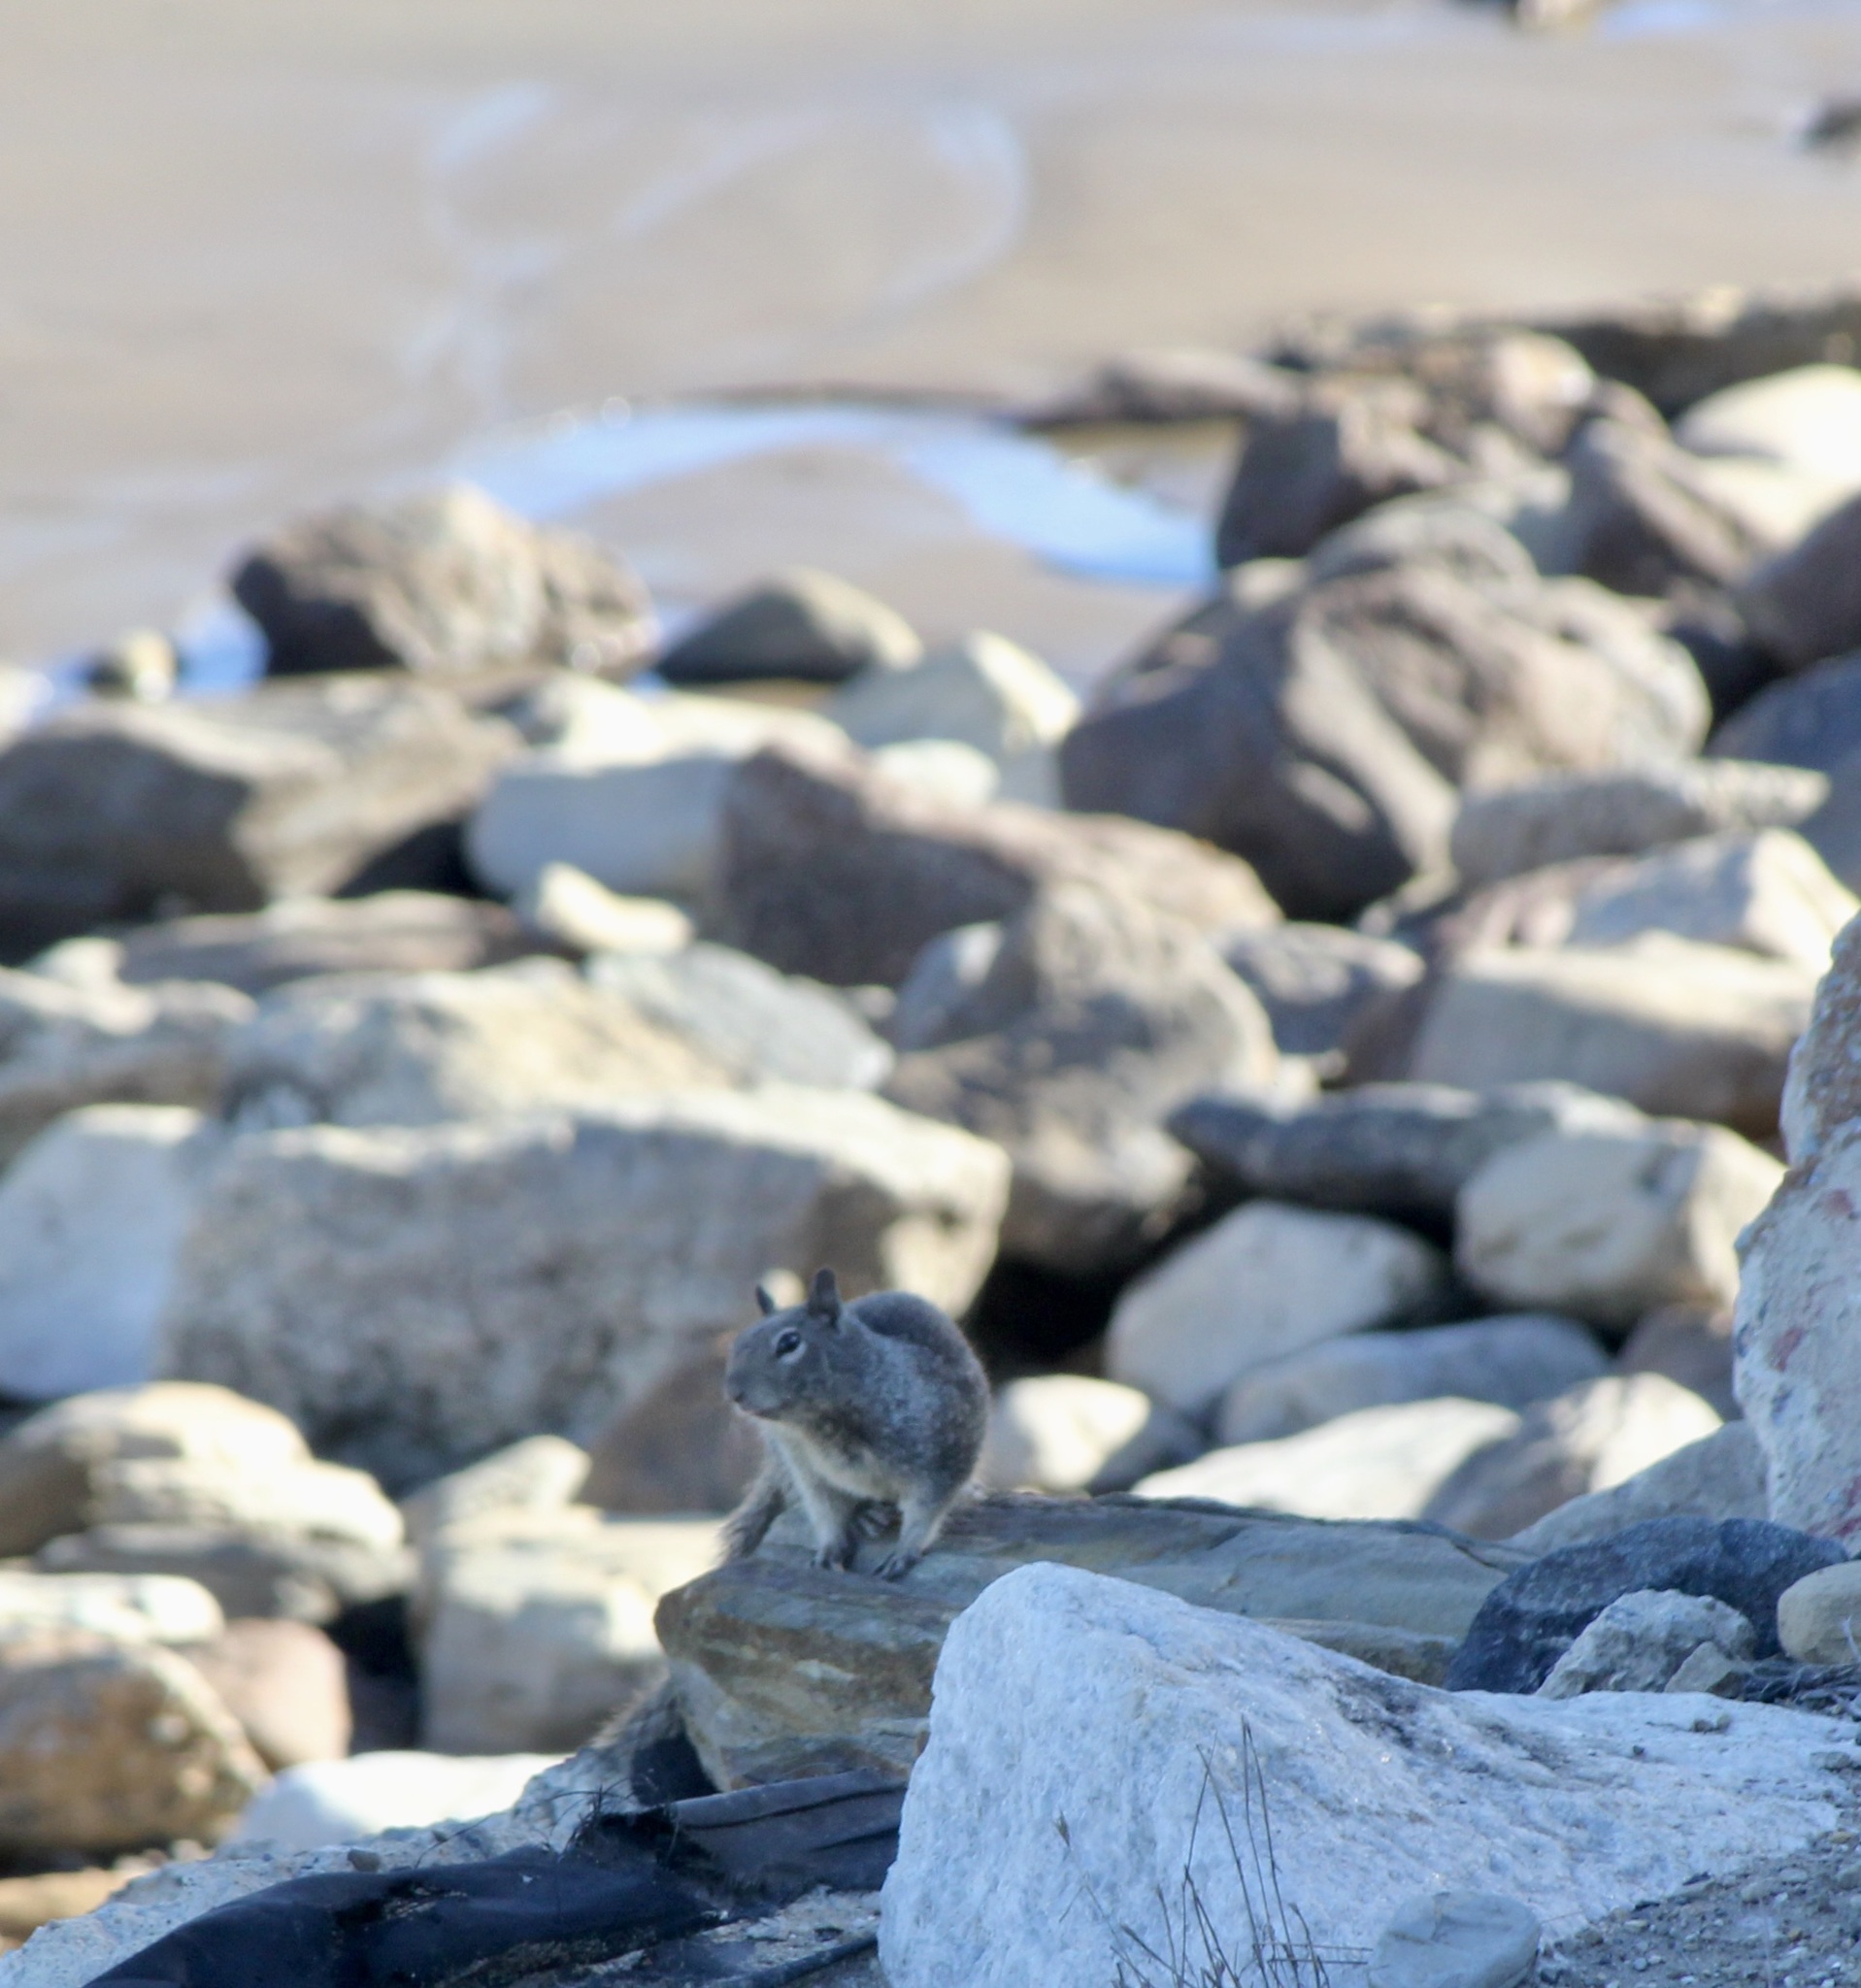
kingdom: Animalia
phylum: Chordata
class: Mammalia
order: Rodentia
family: Sciuridae
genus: Otospermophilus
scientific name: Otospermophilus beecheyi
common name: California ground squirrel
